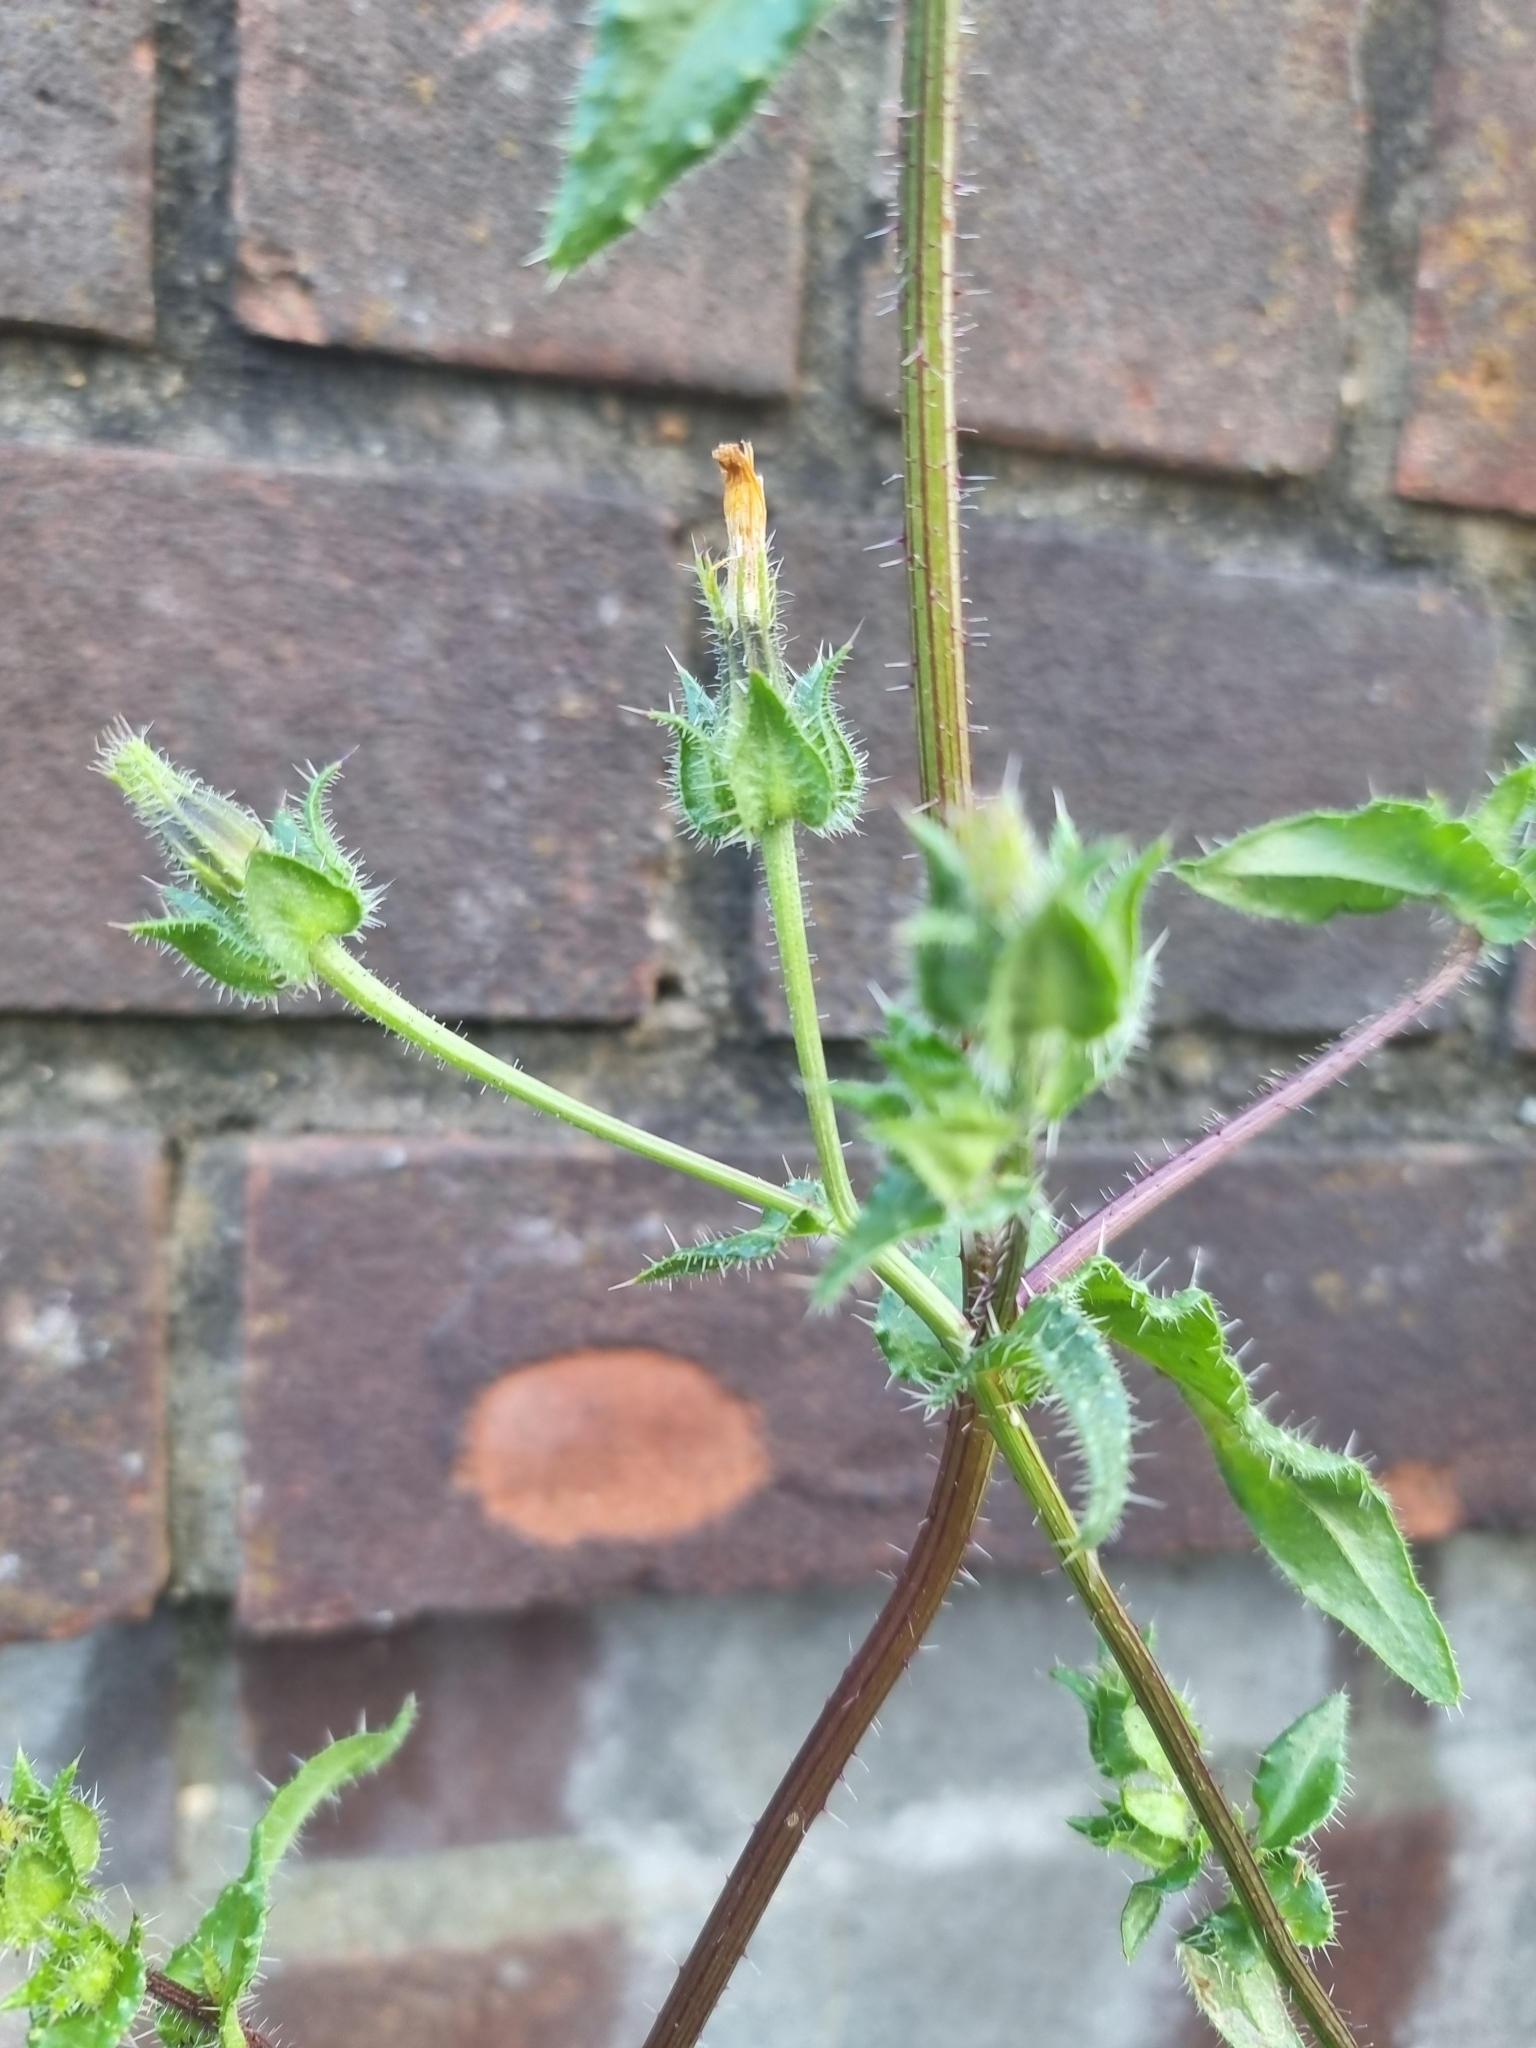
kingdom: Plantae
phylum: Tracheophyta
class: Magnoliopsida
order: Asterales
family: Asteraceae
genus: Helminthotheca
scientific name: Helminthotheca echioides
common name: Ox-tongue
